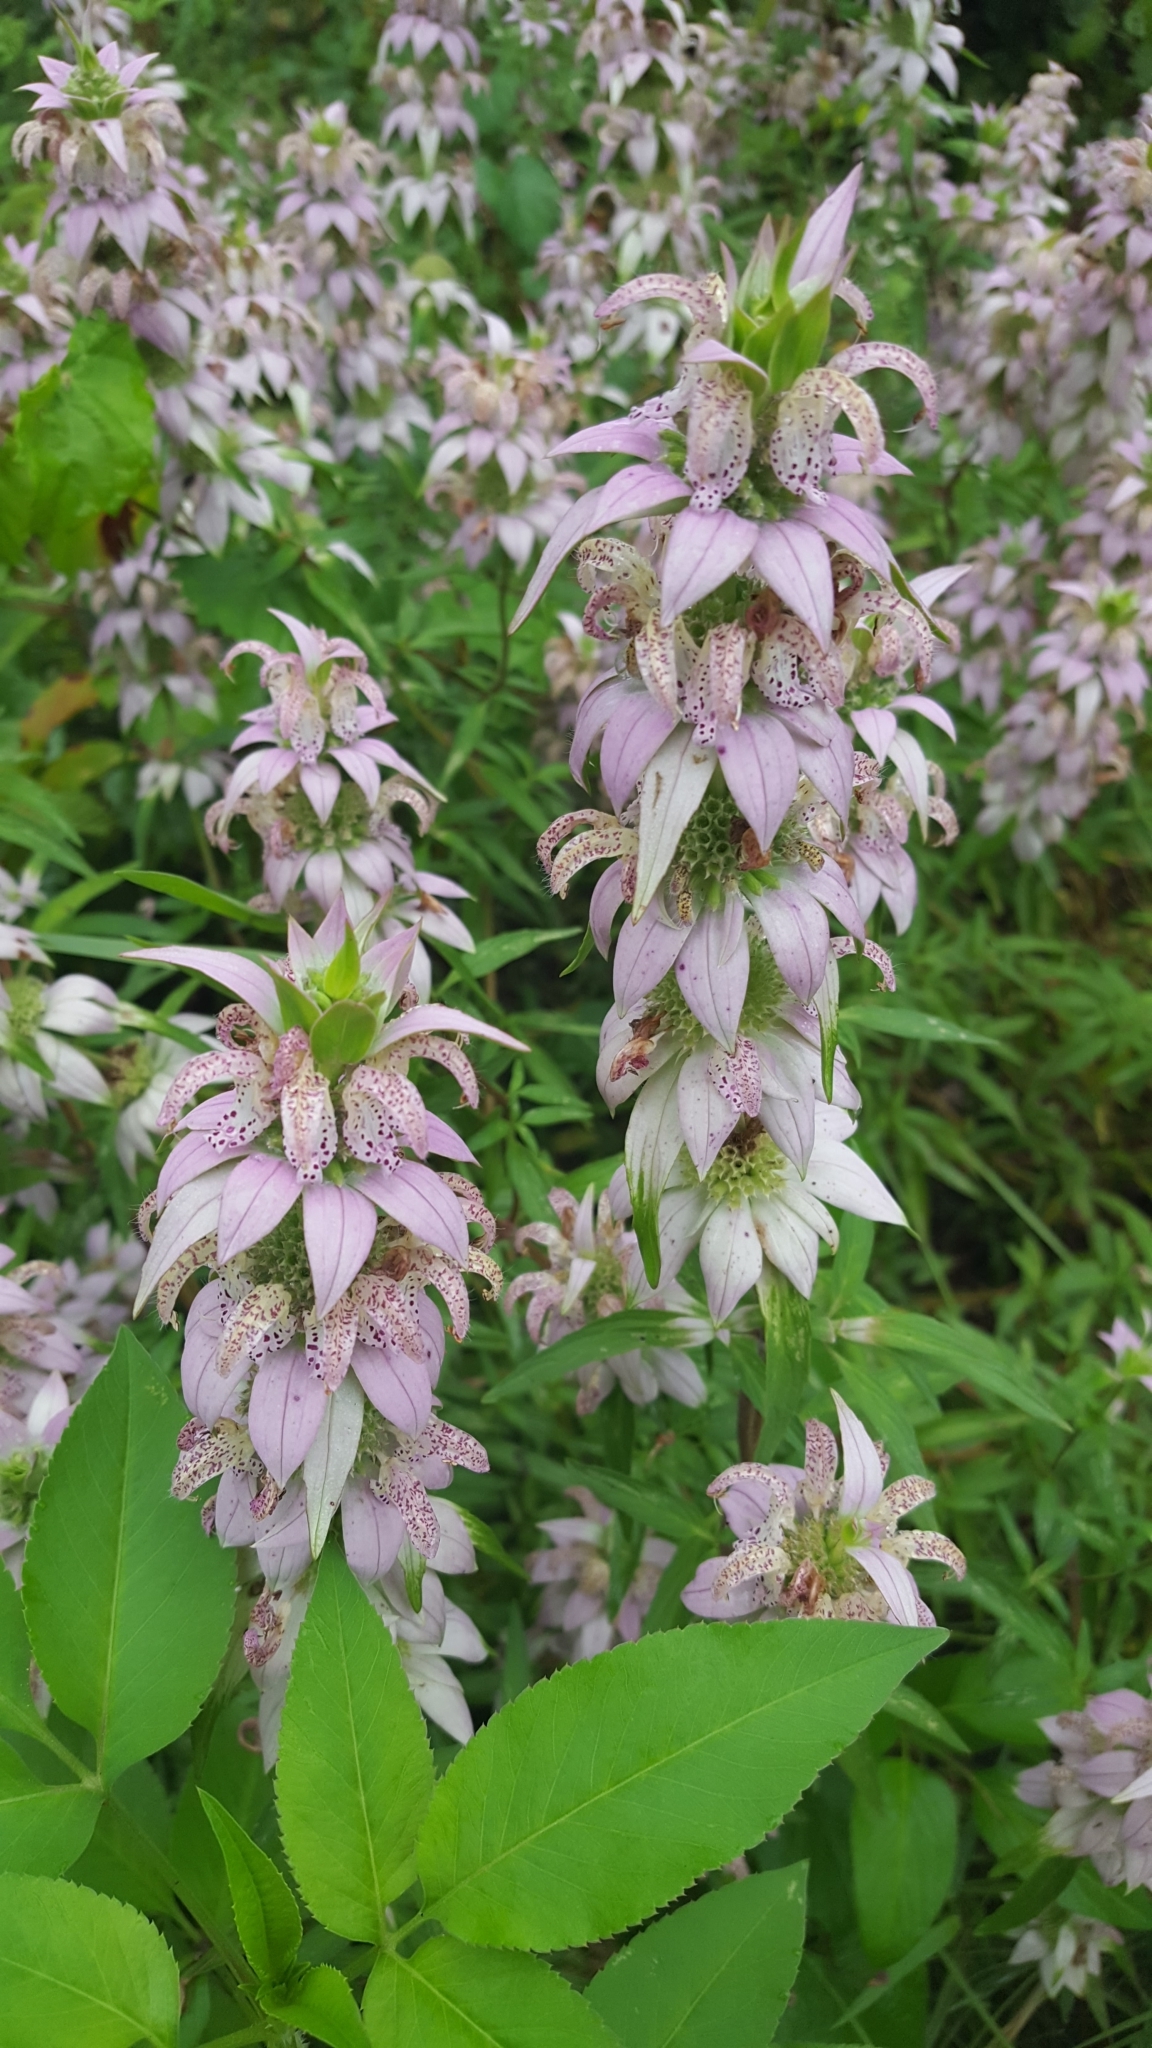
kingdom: Plantae
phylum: Tracheophyta
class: Magnoliopsida
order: Lamiales
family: Lamiaceae
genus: Monarda
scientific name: Monarda punctata
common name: Dotted monarda
